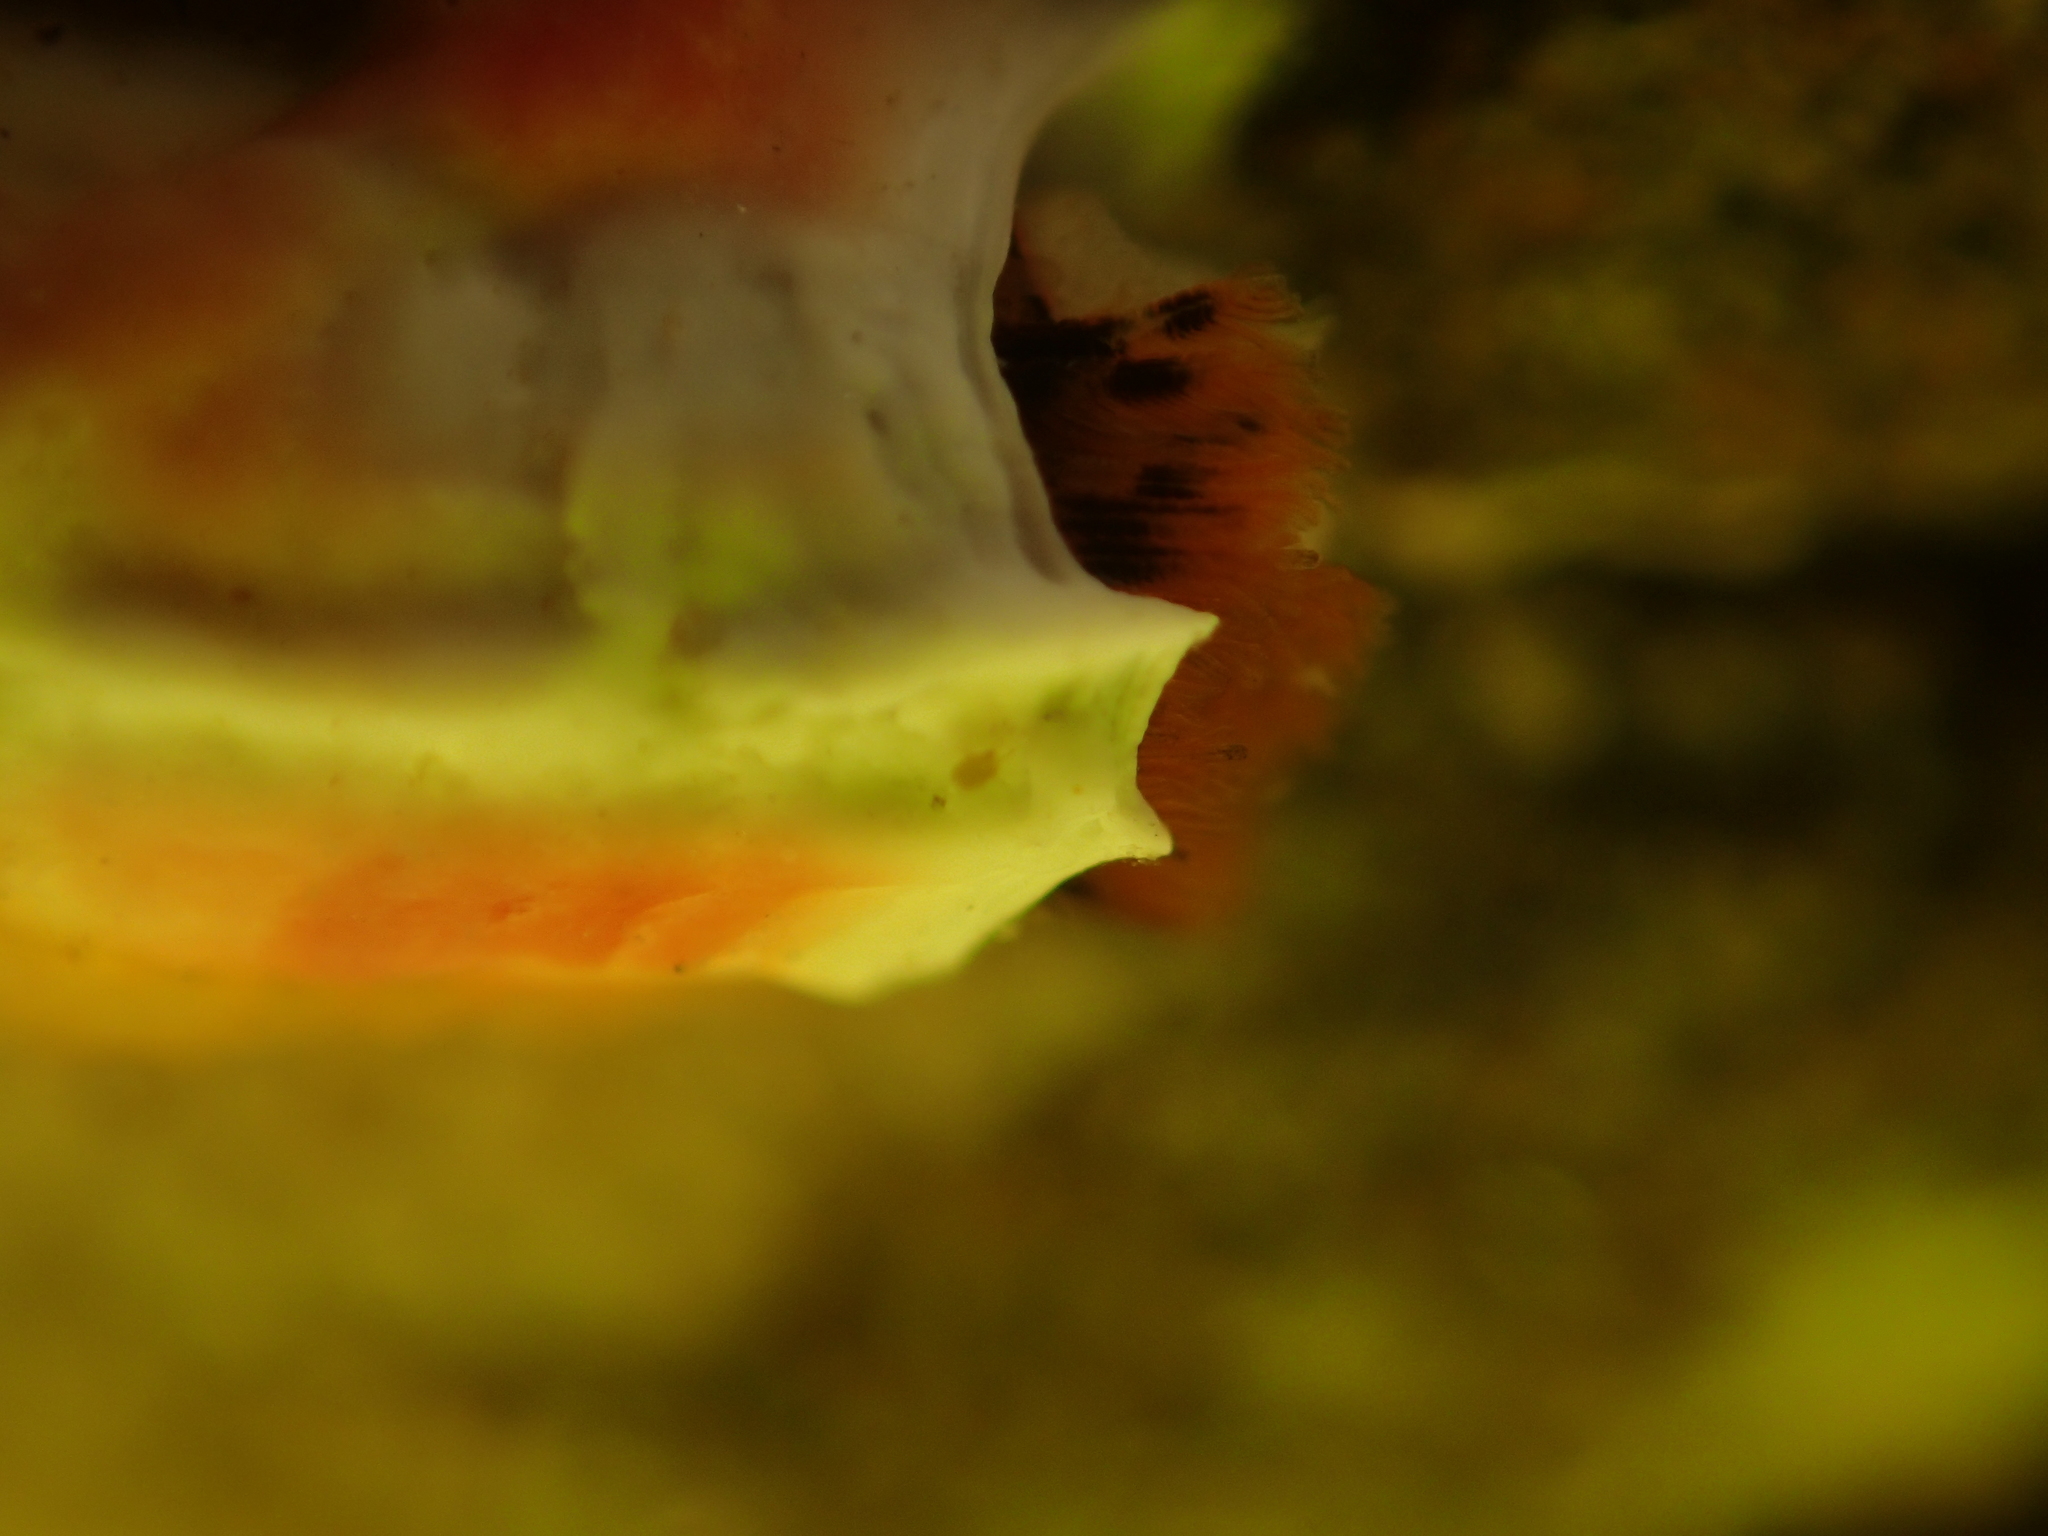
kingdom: Animalia
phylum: Annelida
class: Polychaeta
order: Sabellida
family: Serpulidae
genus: Galeolaria
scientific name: Galeolaria hystrix
